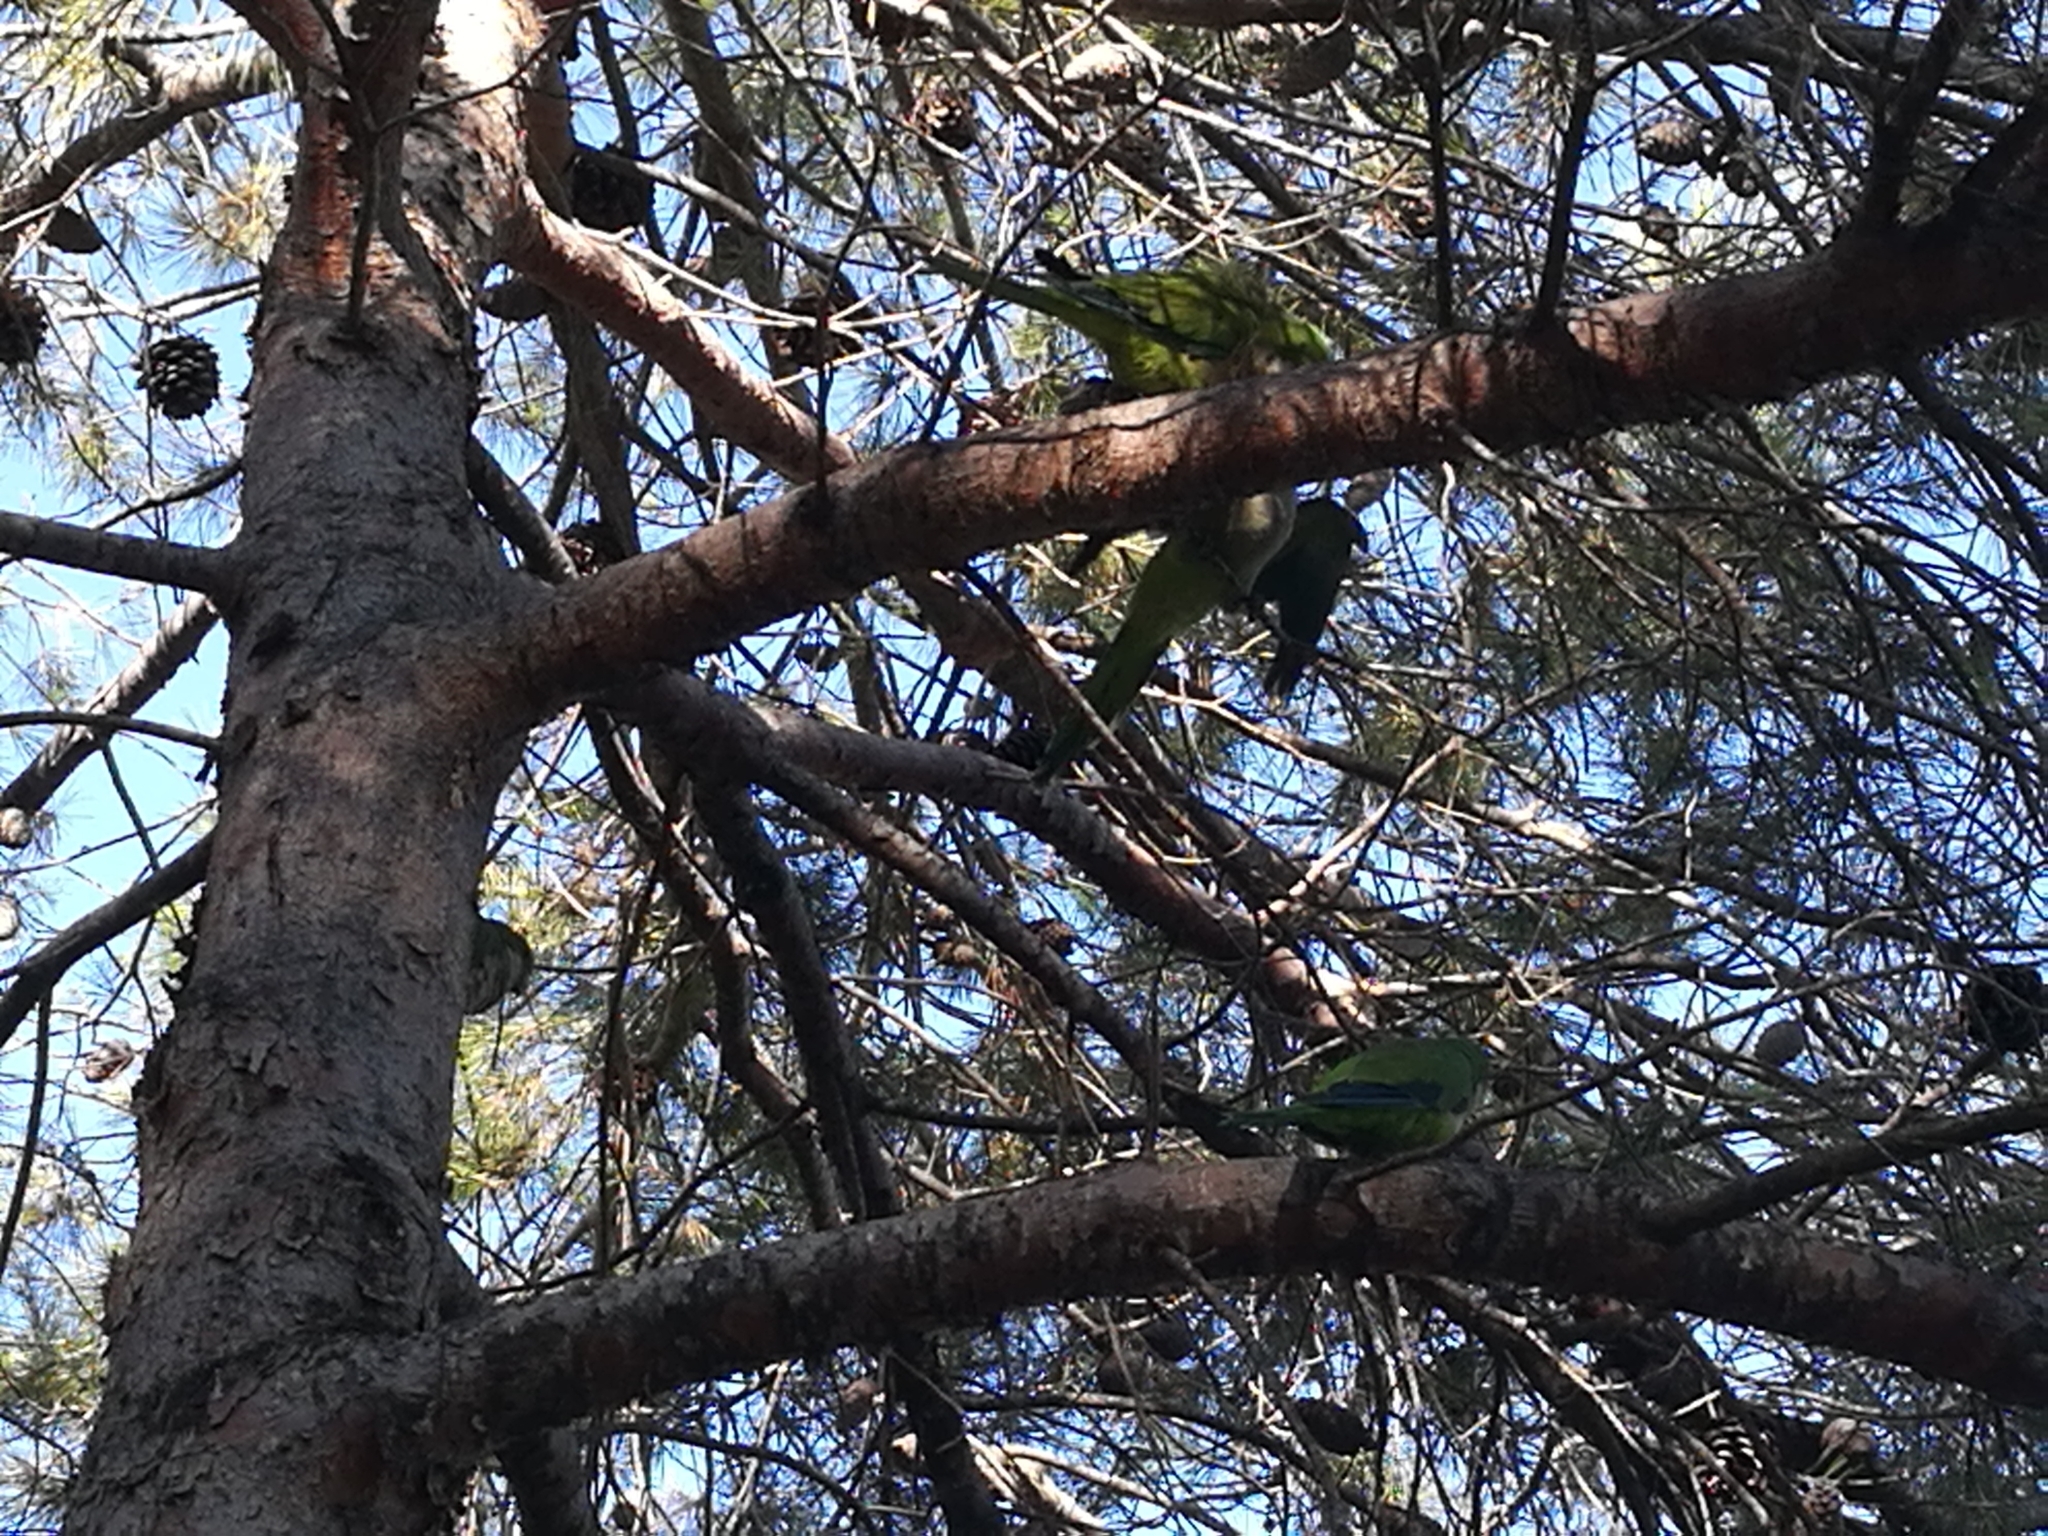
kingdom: Animalia
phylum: Chordata
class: Aves
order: Psittaciformes
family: Psittacidae
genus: Myiopsitta
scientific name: Myiopsitta monachus
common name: Monk parakeet
